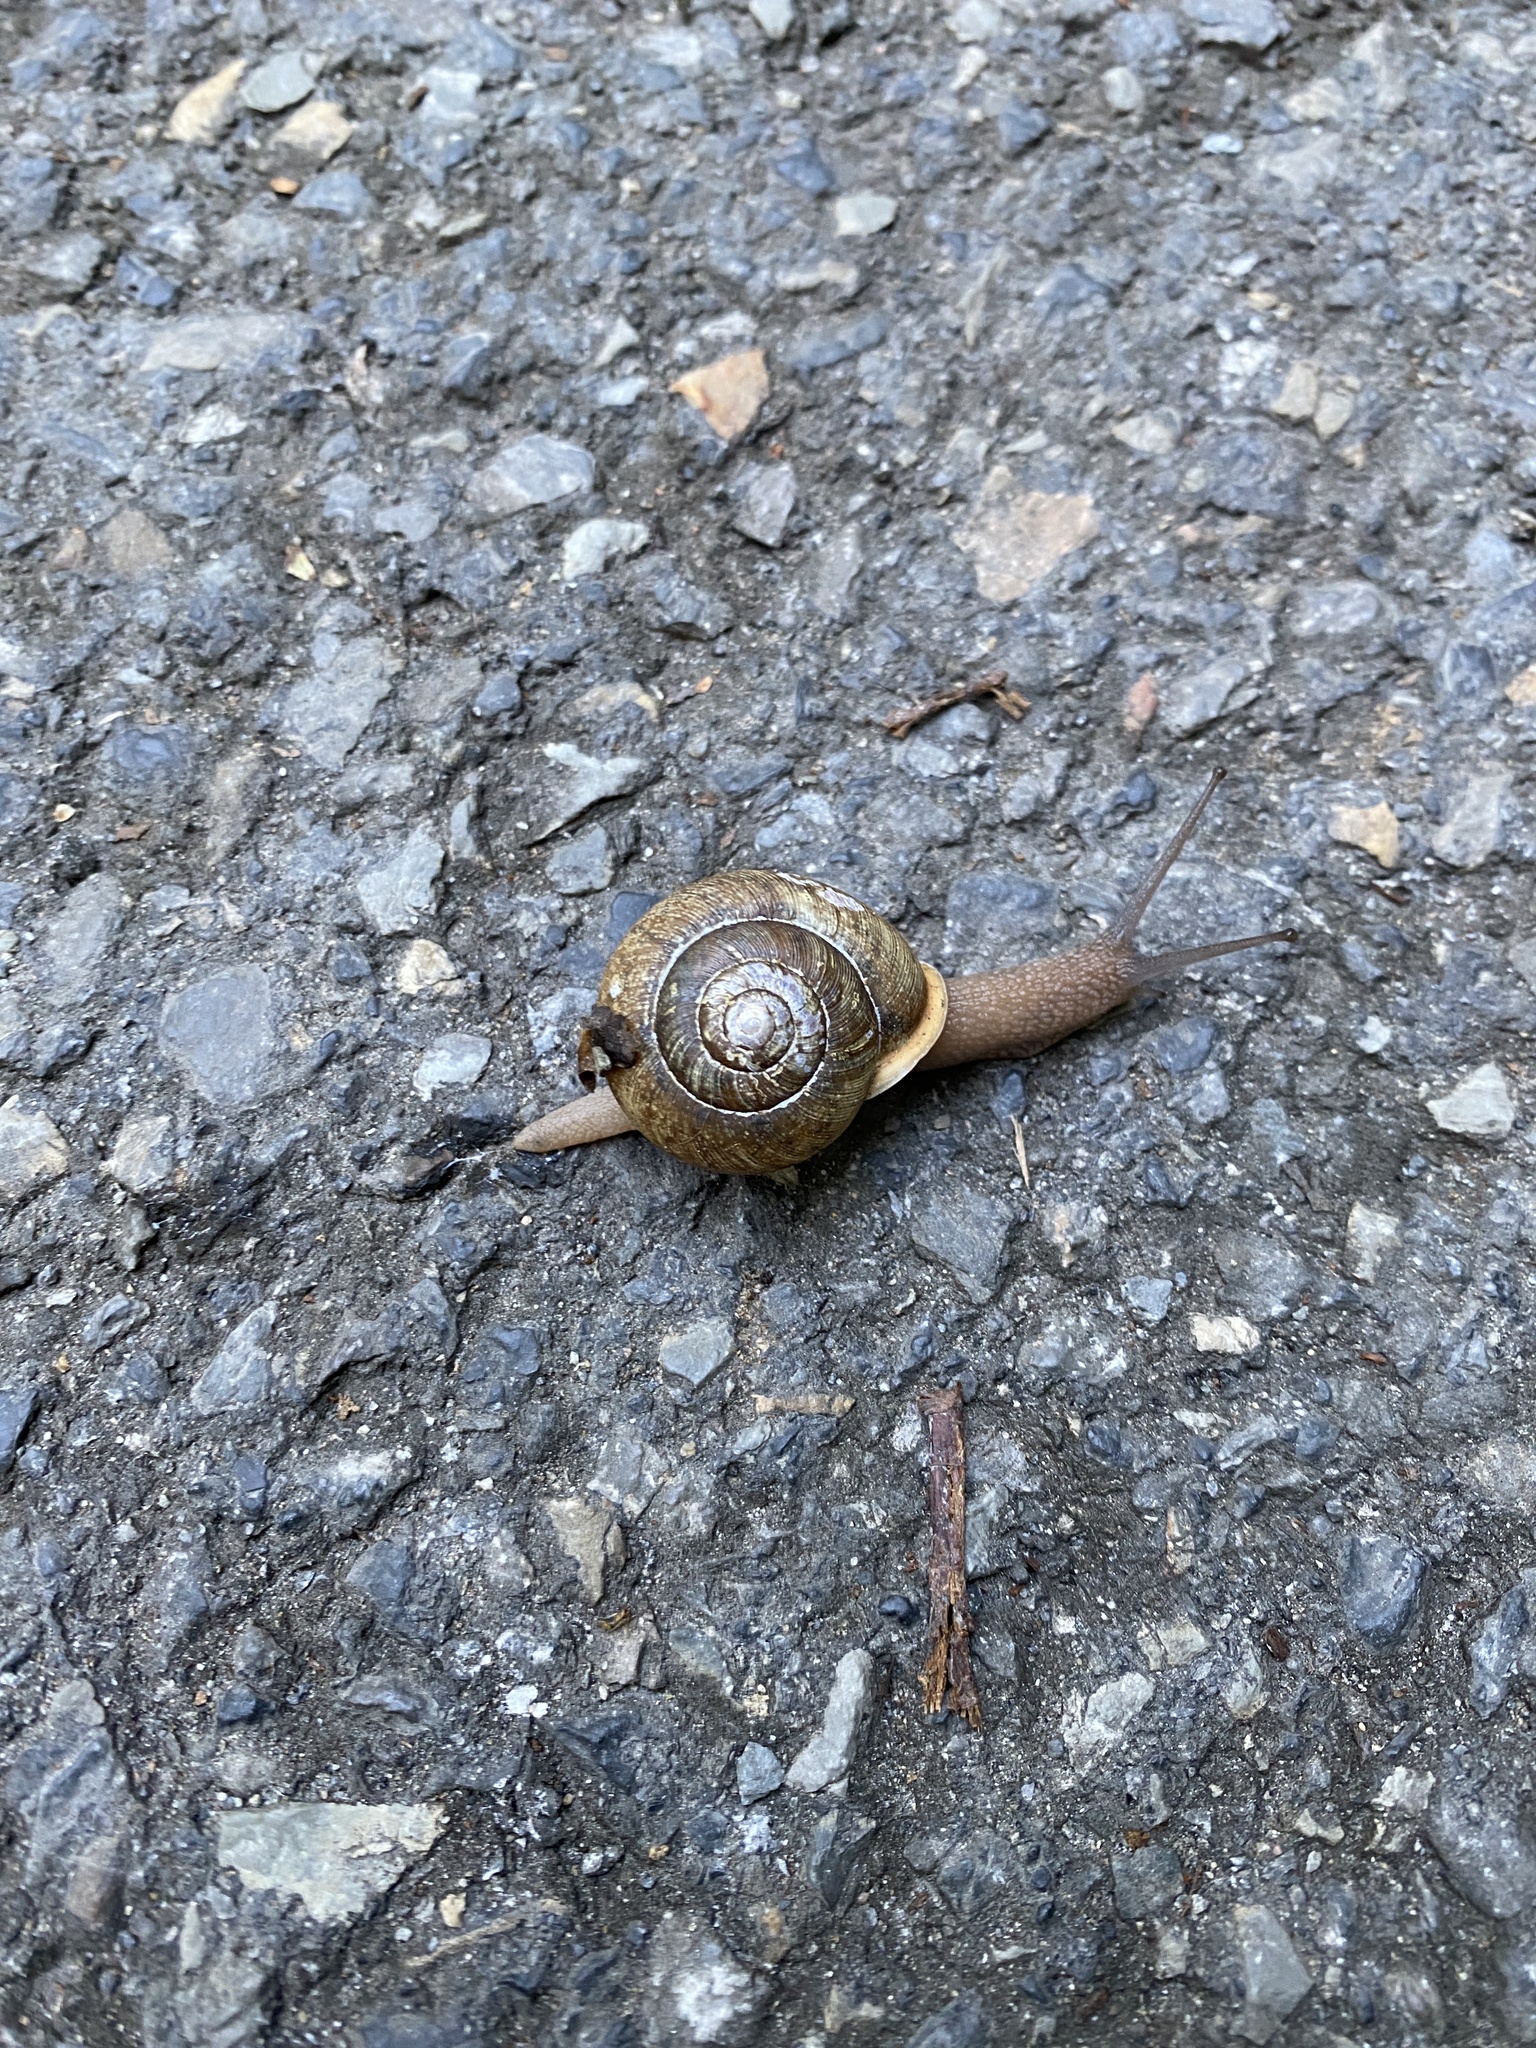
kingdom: Animalia
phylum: Mollusca
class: Gastropoda
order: Stylommatophora
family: Polygyridae
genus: Neohelix
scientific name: Neohelix albolabris
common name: Eastern whitelip
